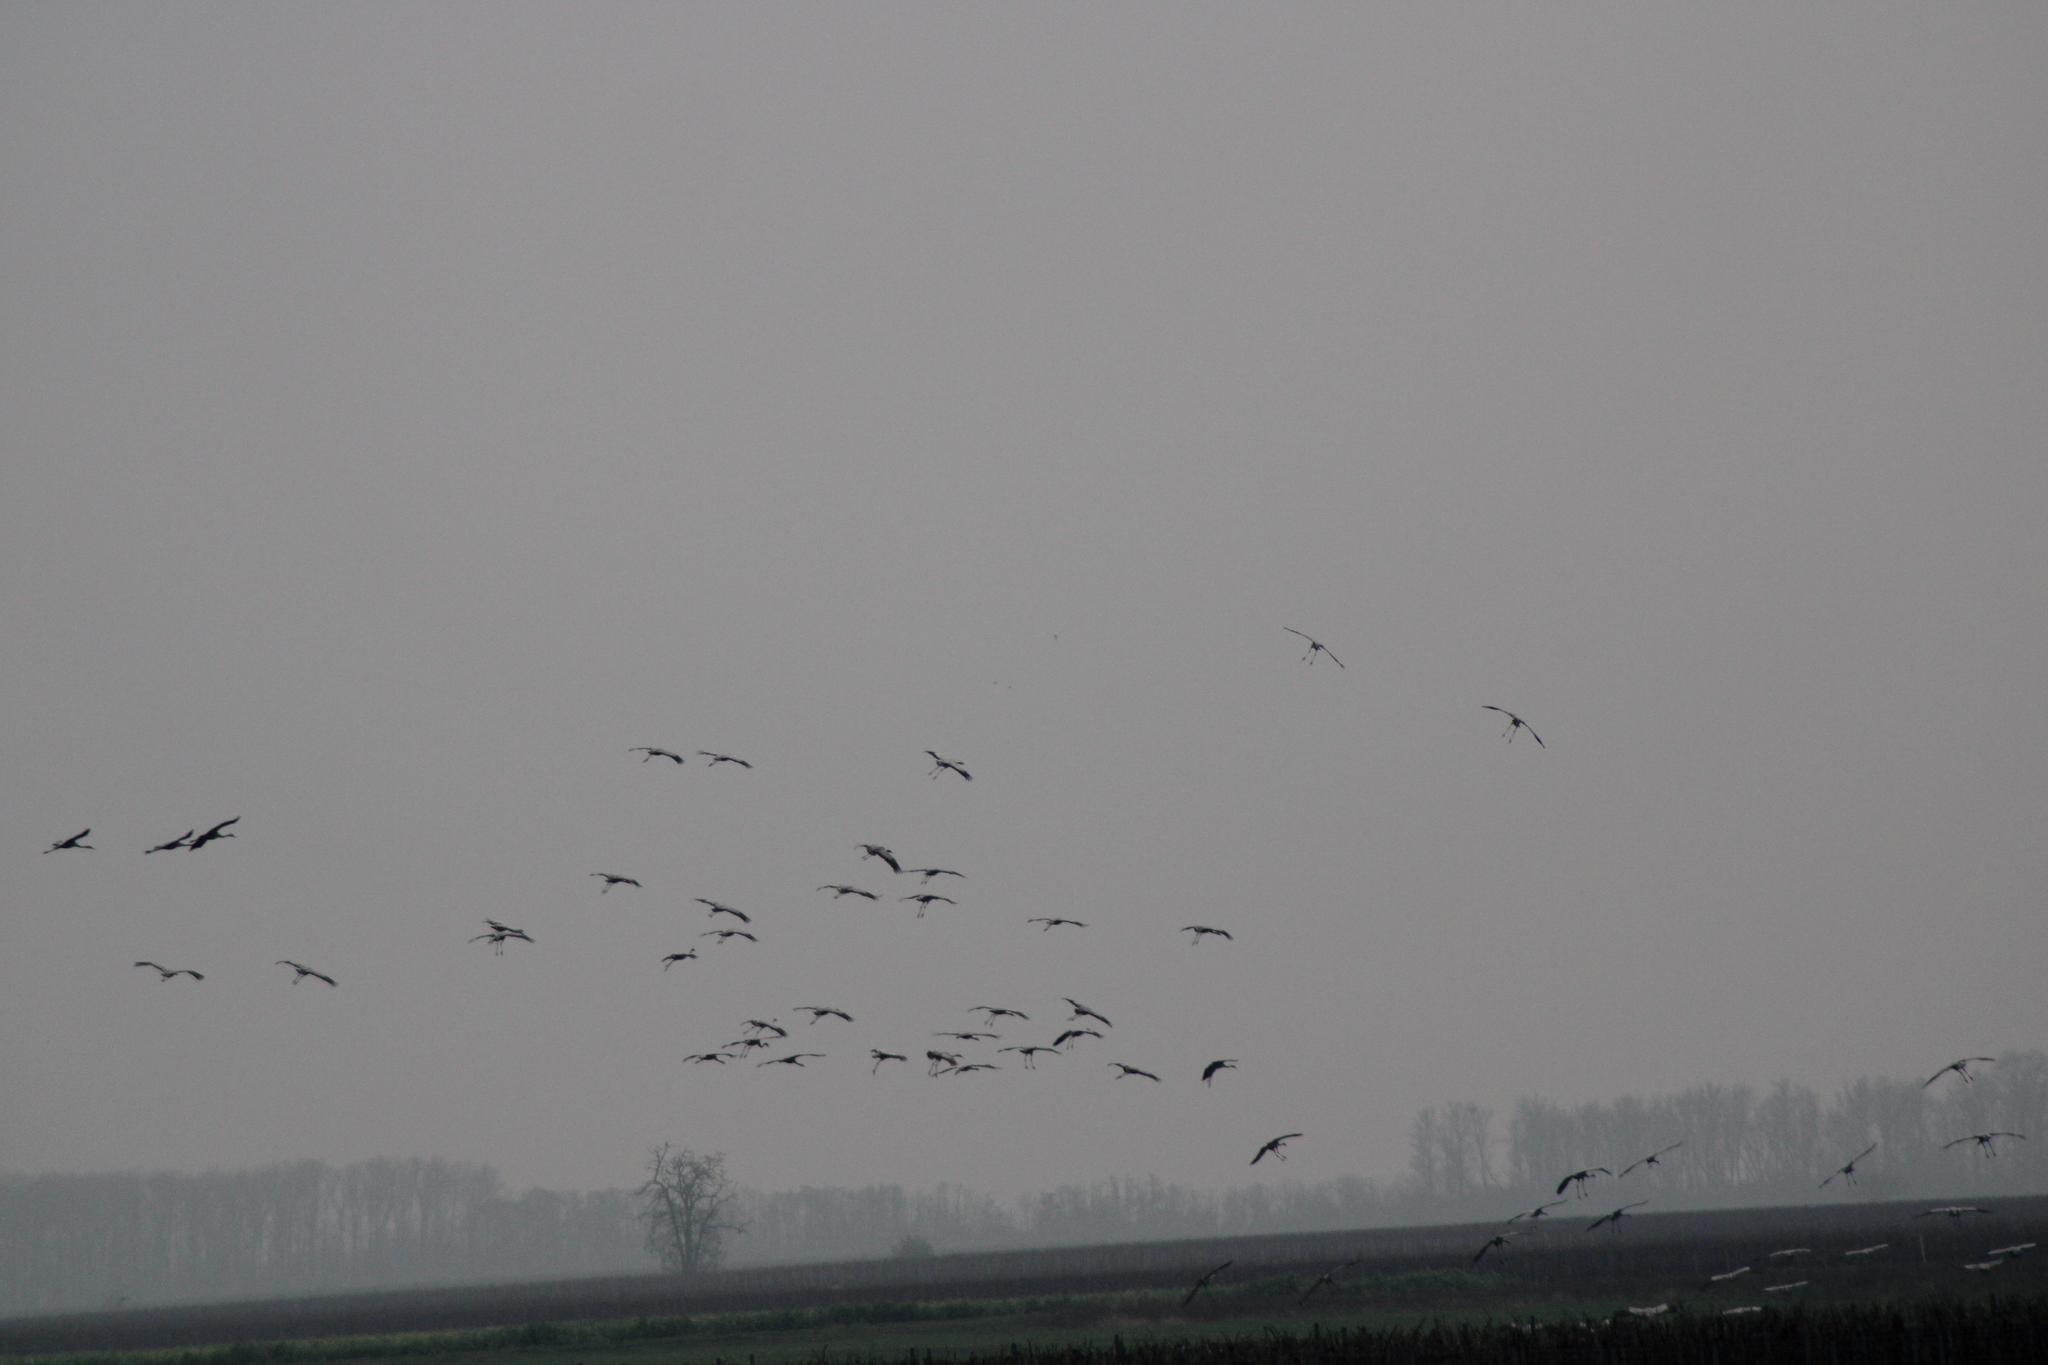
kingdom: Animalia
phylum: Chordata
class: Aves
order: Gruiformes
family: Gruidae
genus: Grus
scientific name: Grus grus
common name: Common crane
